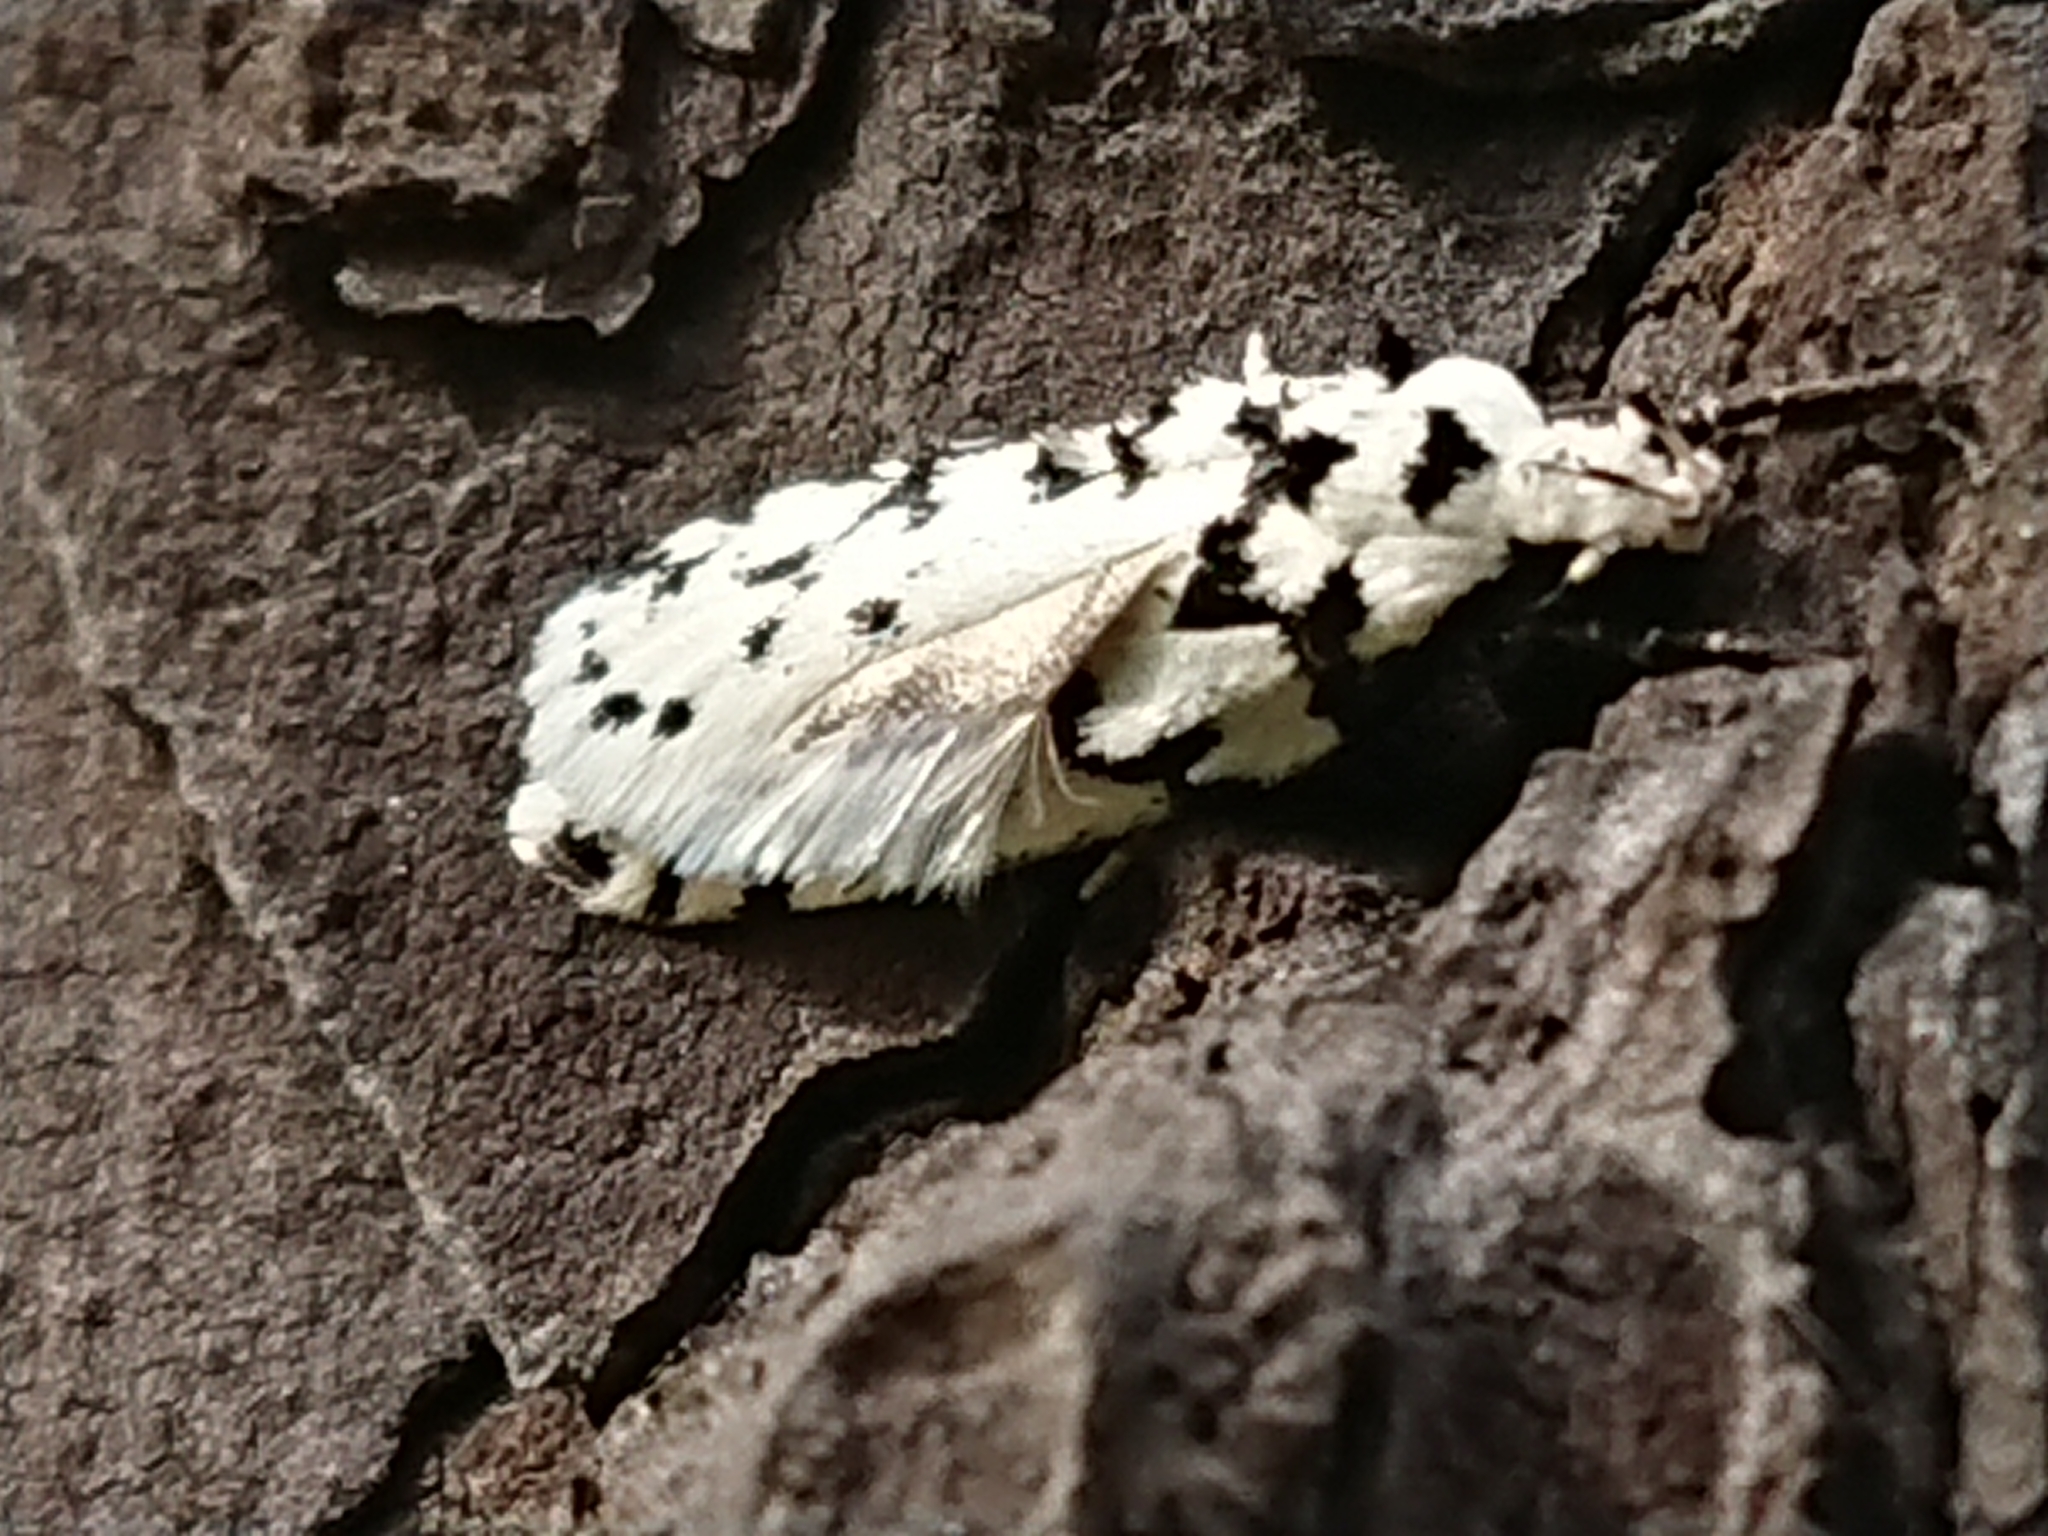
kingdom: Animalia
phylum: Arthropoda
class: Insecta
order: Lepidoptera
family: Oecophoridae
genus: Izatha
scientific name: Izatha katadiktya
